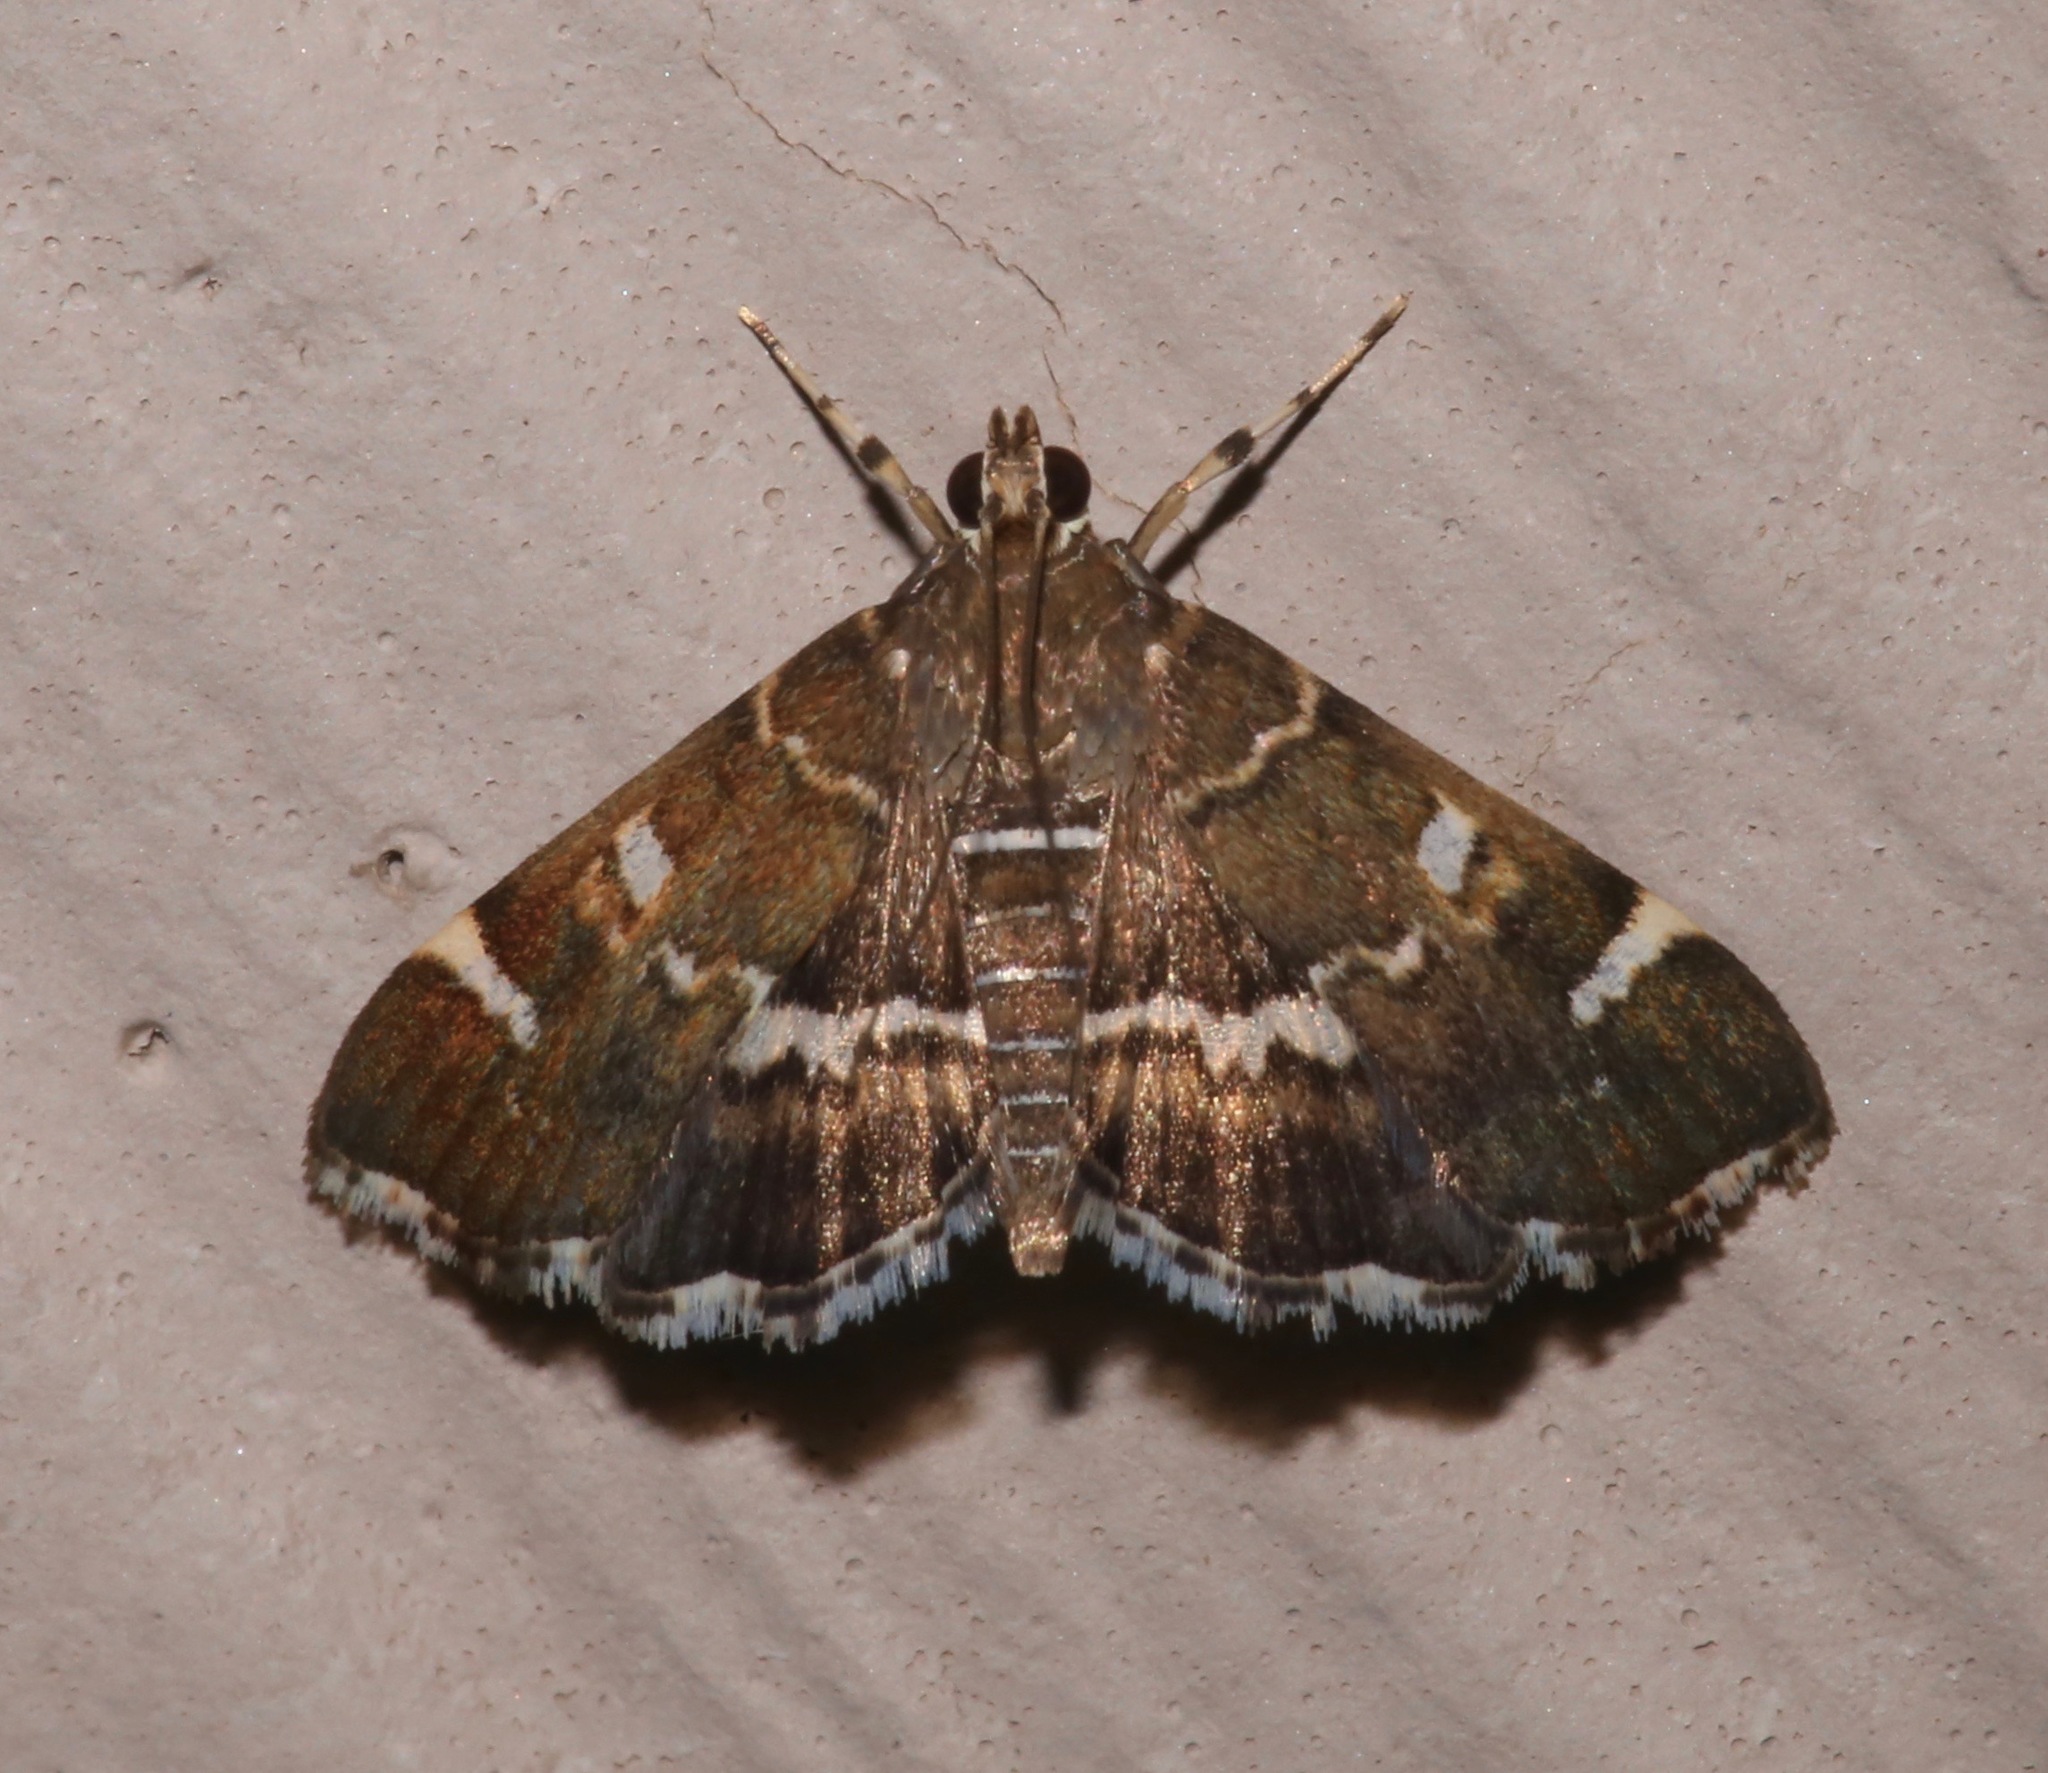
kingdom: Animalia
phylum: Arthropoda
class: Insecta
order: Lepidoptera
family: Crambidae
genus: Hymenia
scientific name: Hymenia perspectalis
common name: Spotted beet webworm
